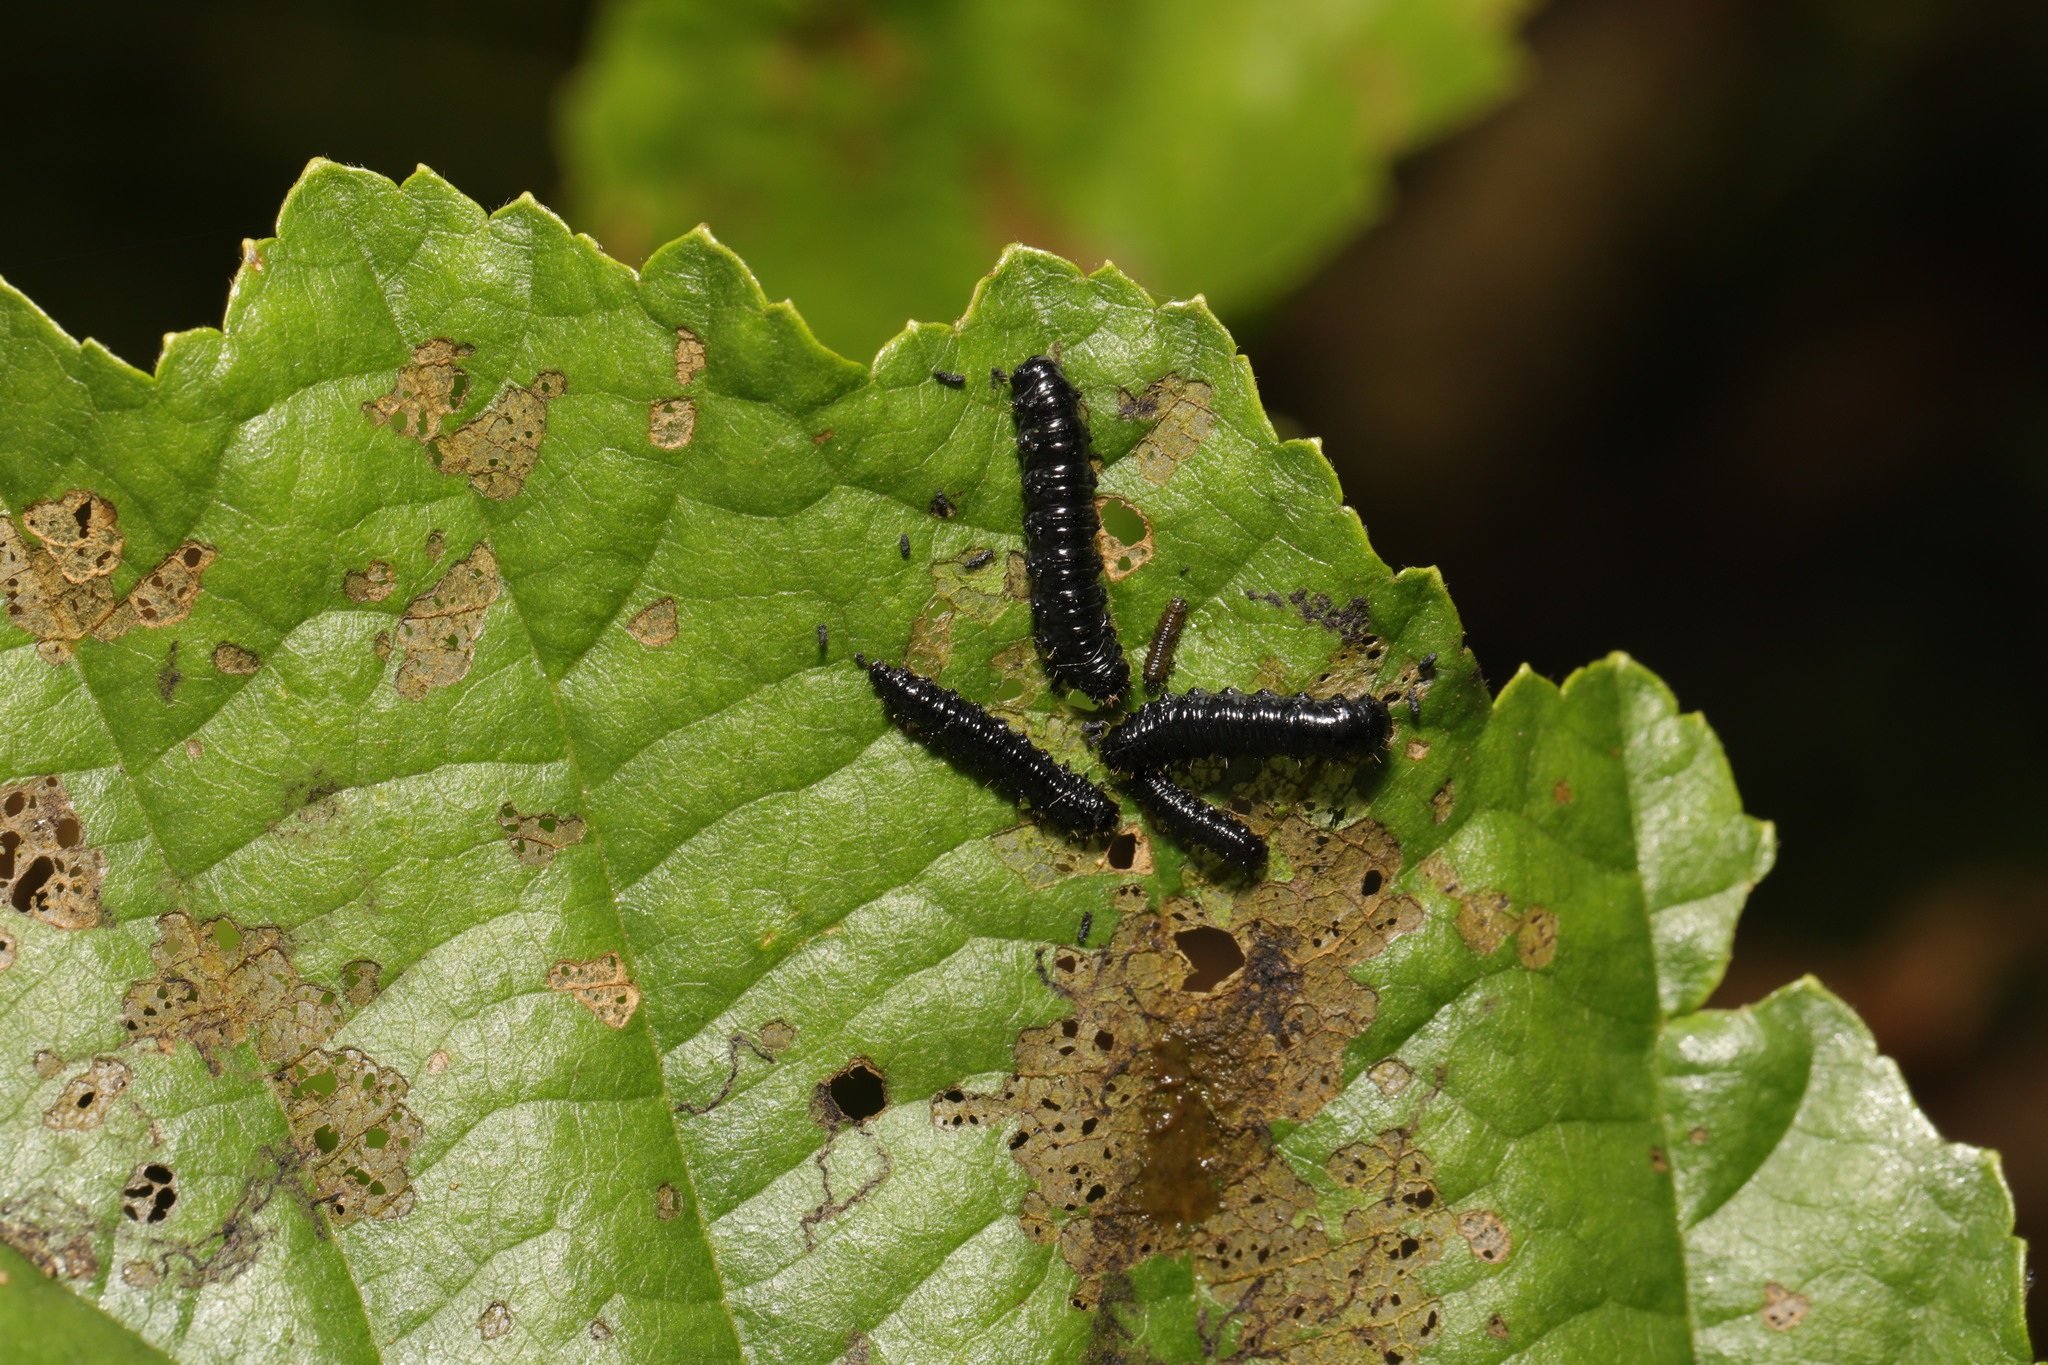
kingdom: Animalia
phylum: Arthropoda
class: Insecta
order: Coleoptera
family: Chrysomelidae
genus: Agelastica
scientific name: Agelastica alni
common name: Alder leaf beetle
